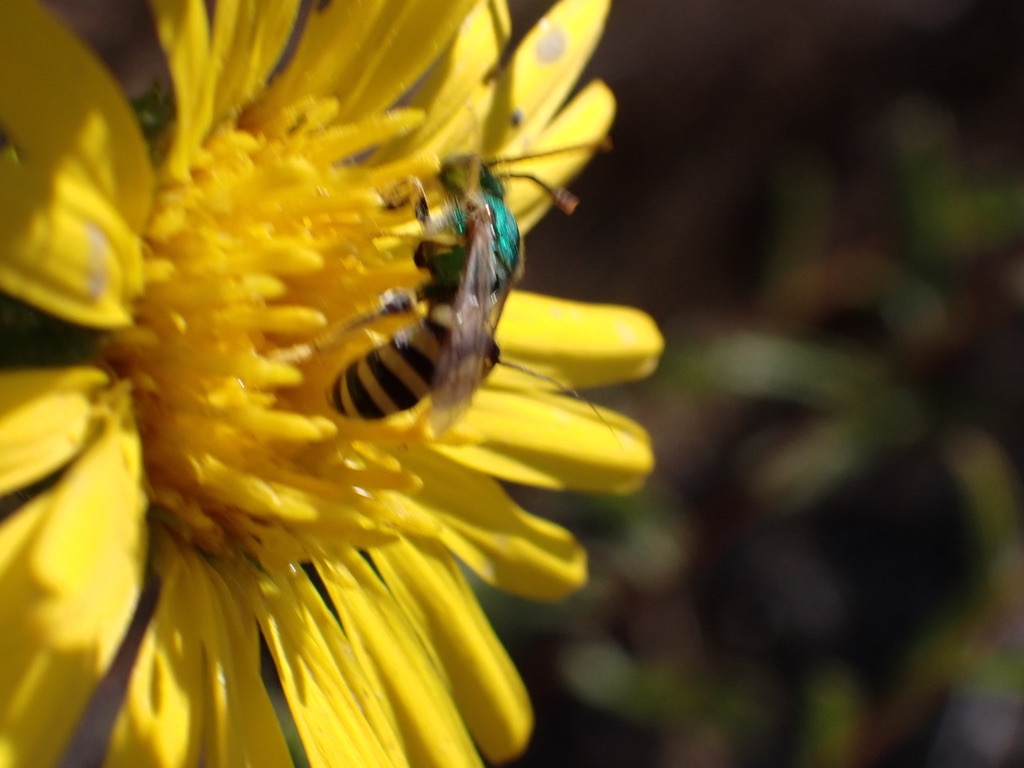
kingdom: Animalia
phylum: Arthropoda
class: Insecta
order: Hymenoptera
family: Halictidae
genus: Agapostemon
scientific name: Agapostemon texanus
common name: Texas striped sweat bee
